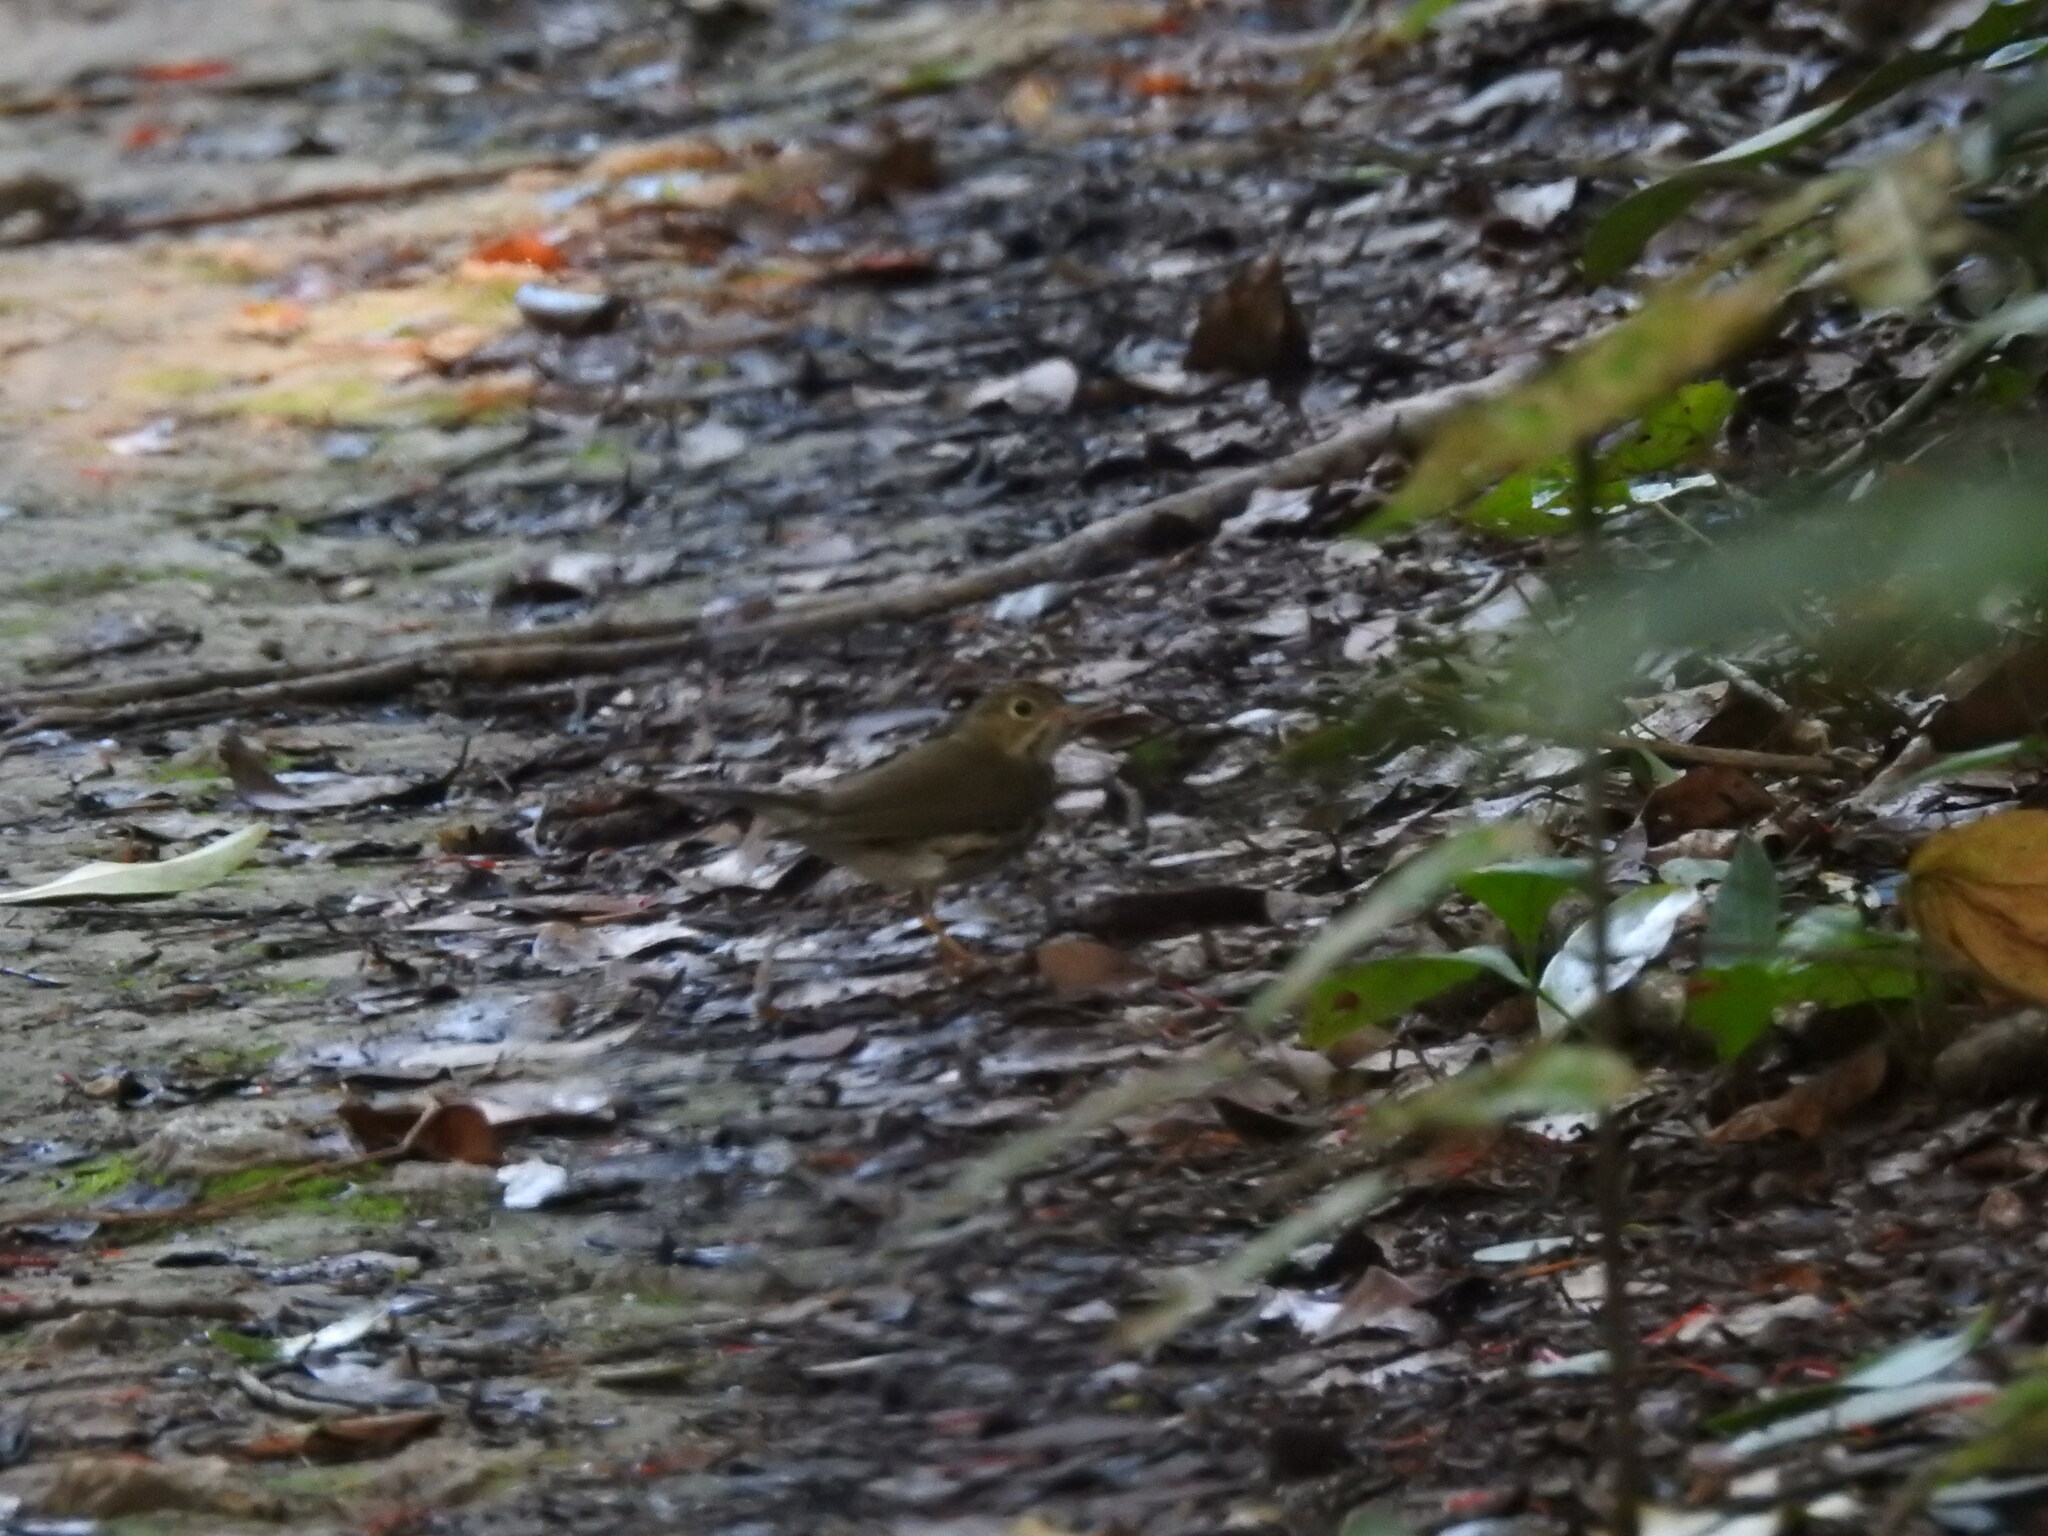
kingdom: Animalia
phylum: Chordata
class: Aves
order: Passeriformes
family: Parulidae
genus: Seiurus
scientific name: Seiurus aurocapilla
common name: Ovenbird
